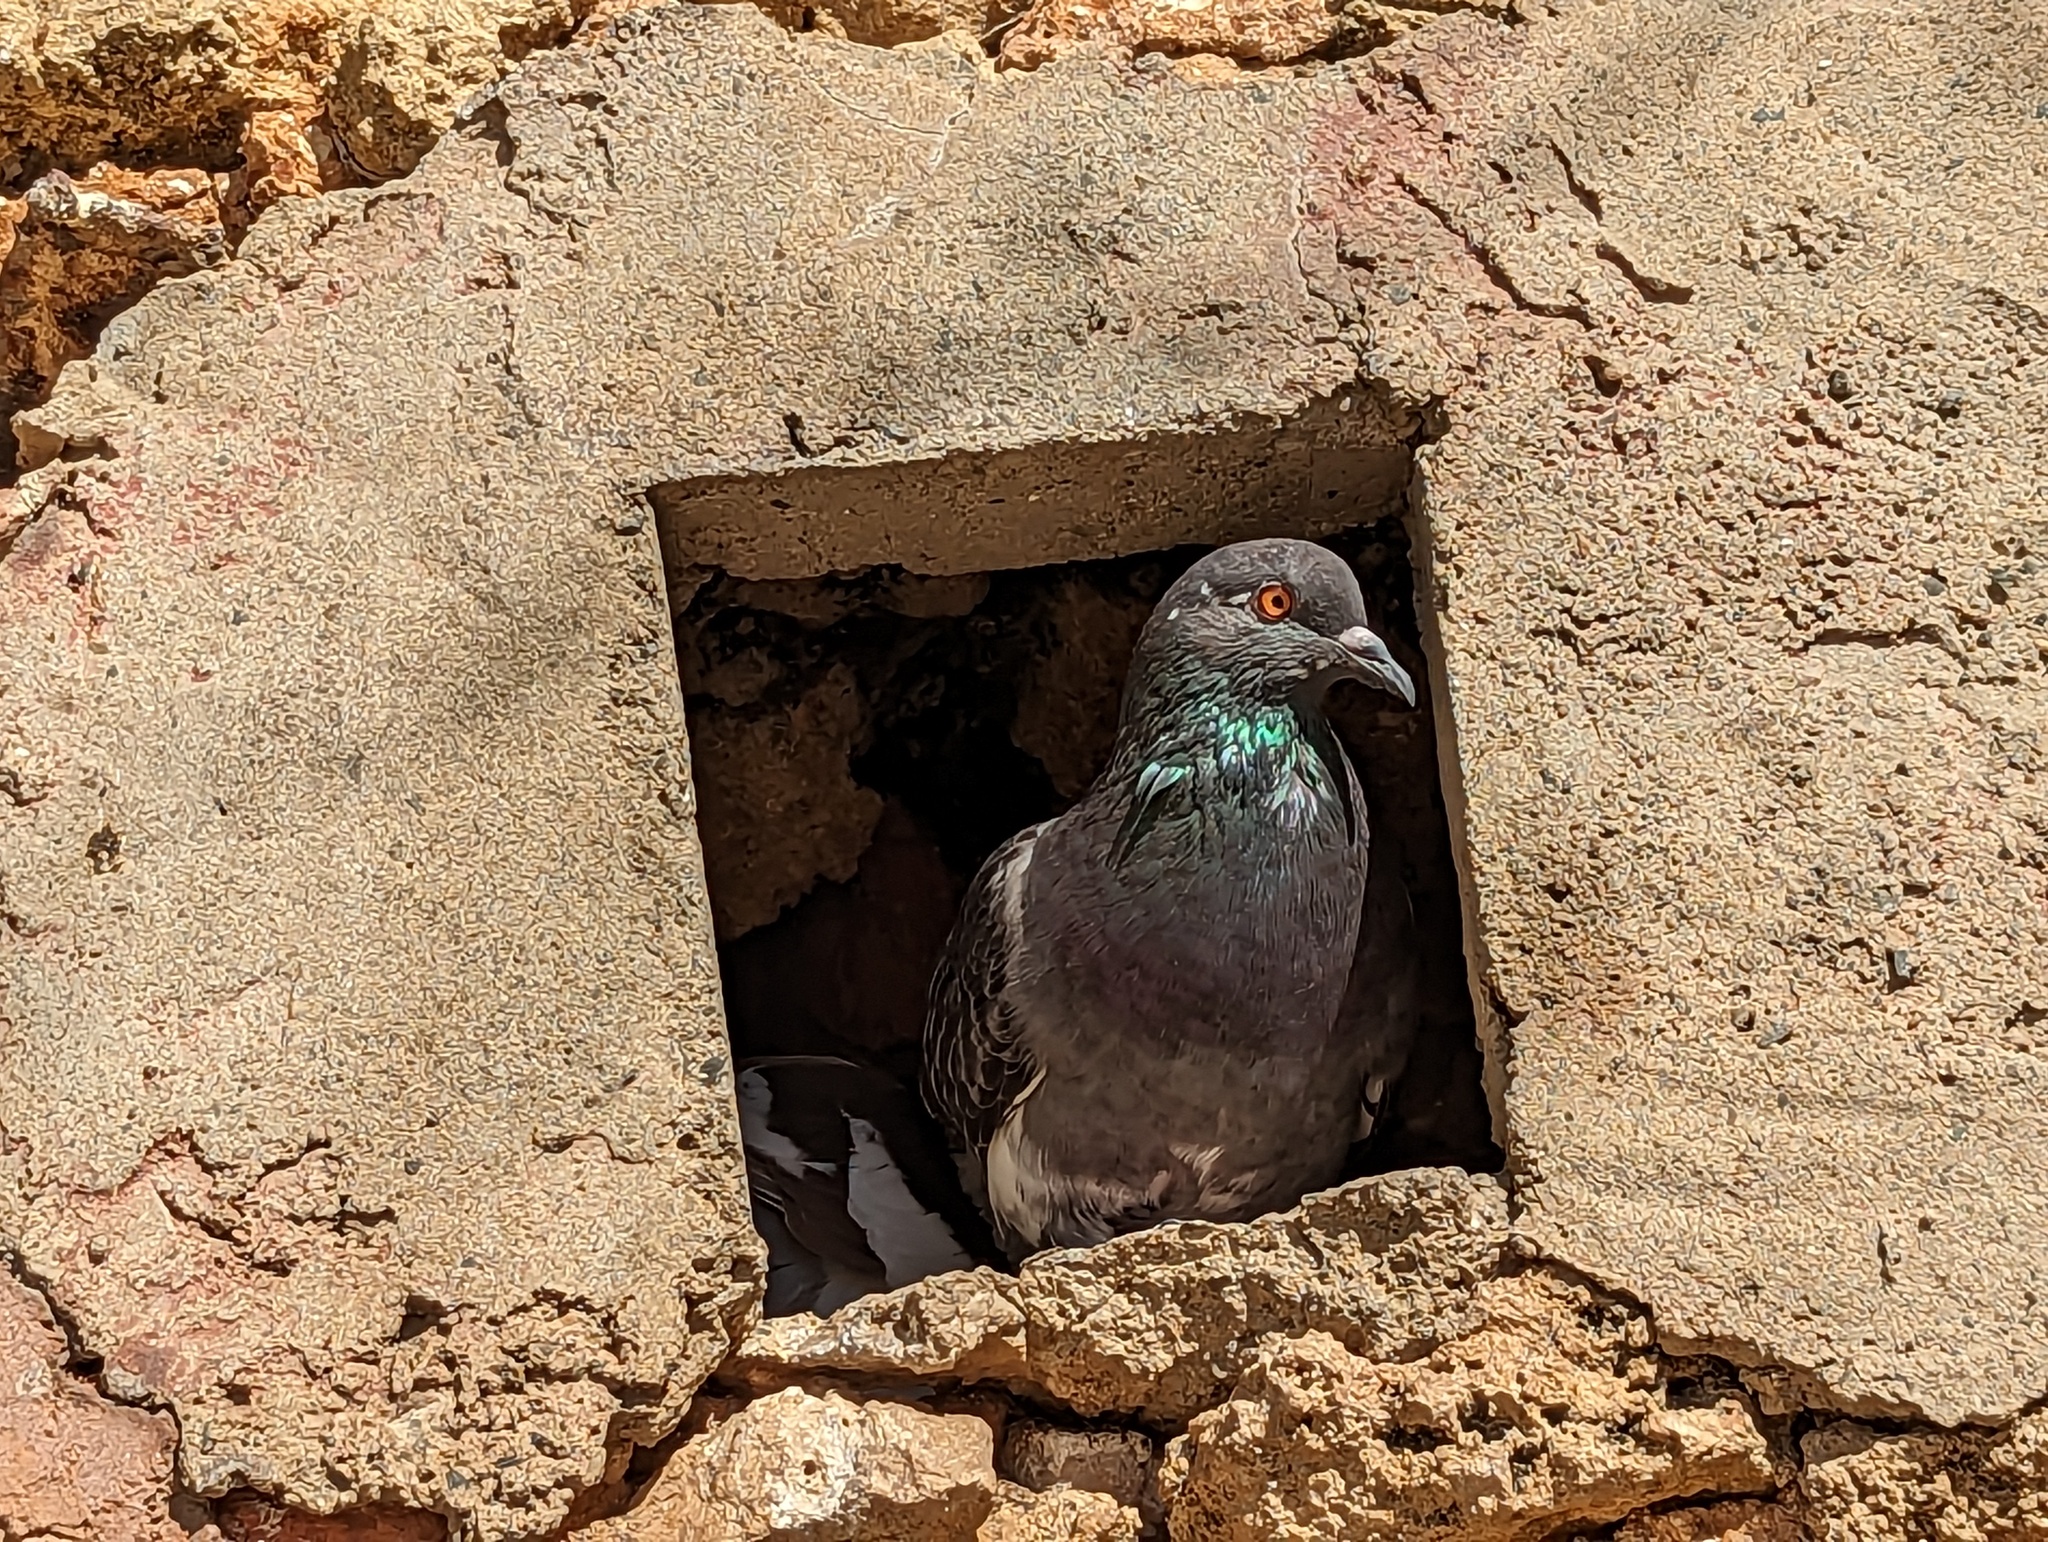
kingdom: Animalia
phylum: Chordata
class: Aves
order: Columbiformes
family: Columbidae
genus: Columba
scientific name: Columba livia
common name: Rock pigeon
